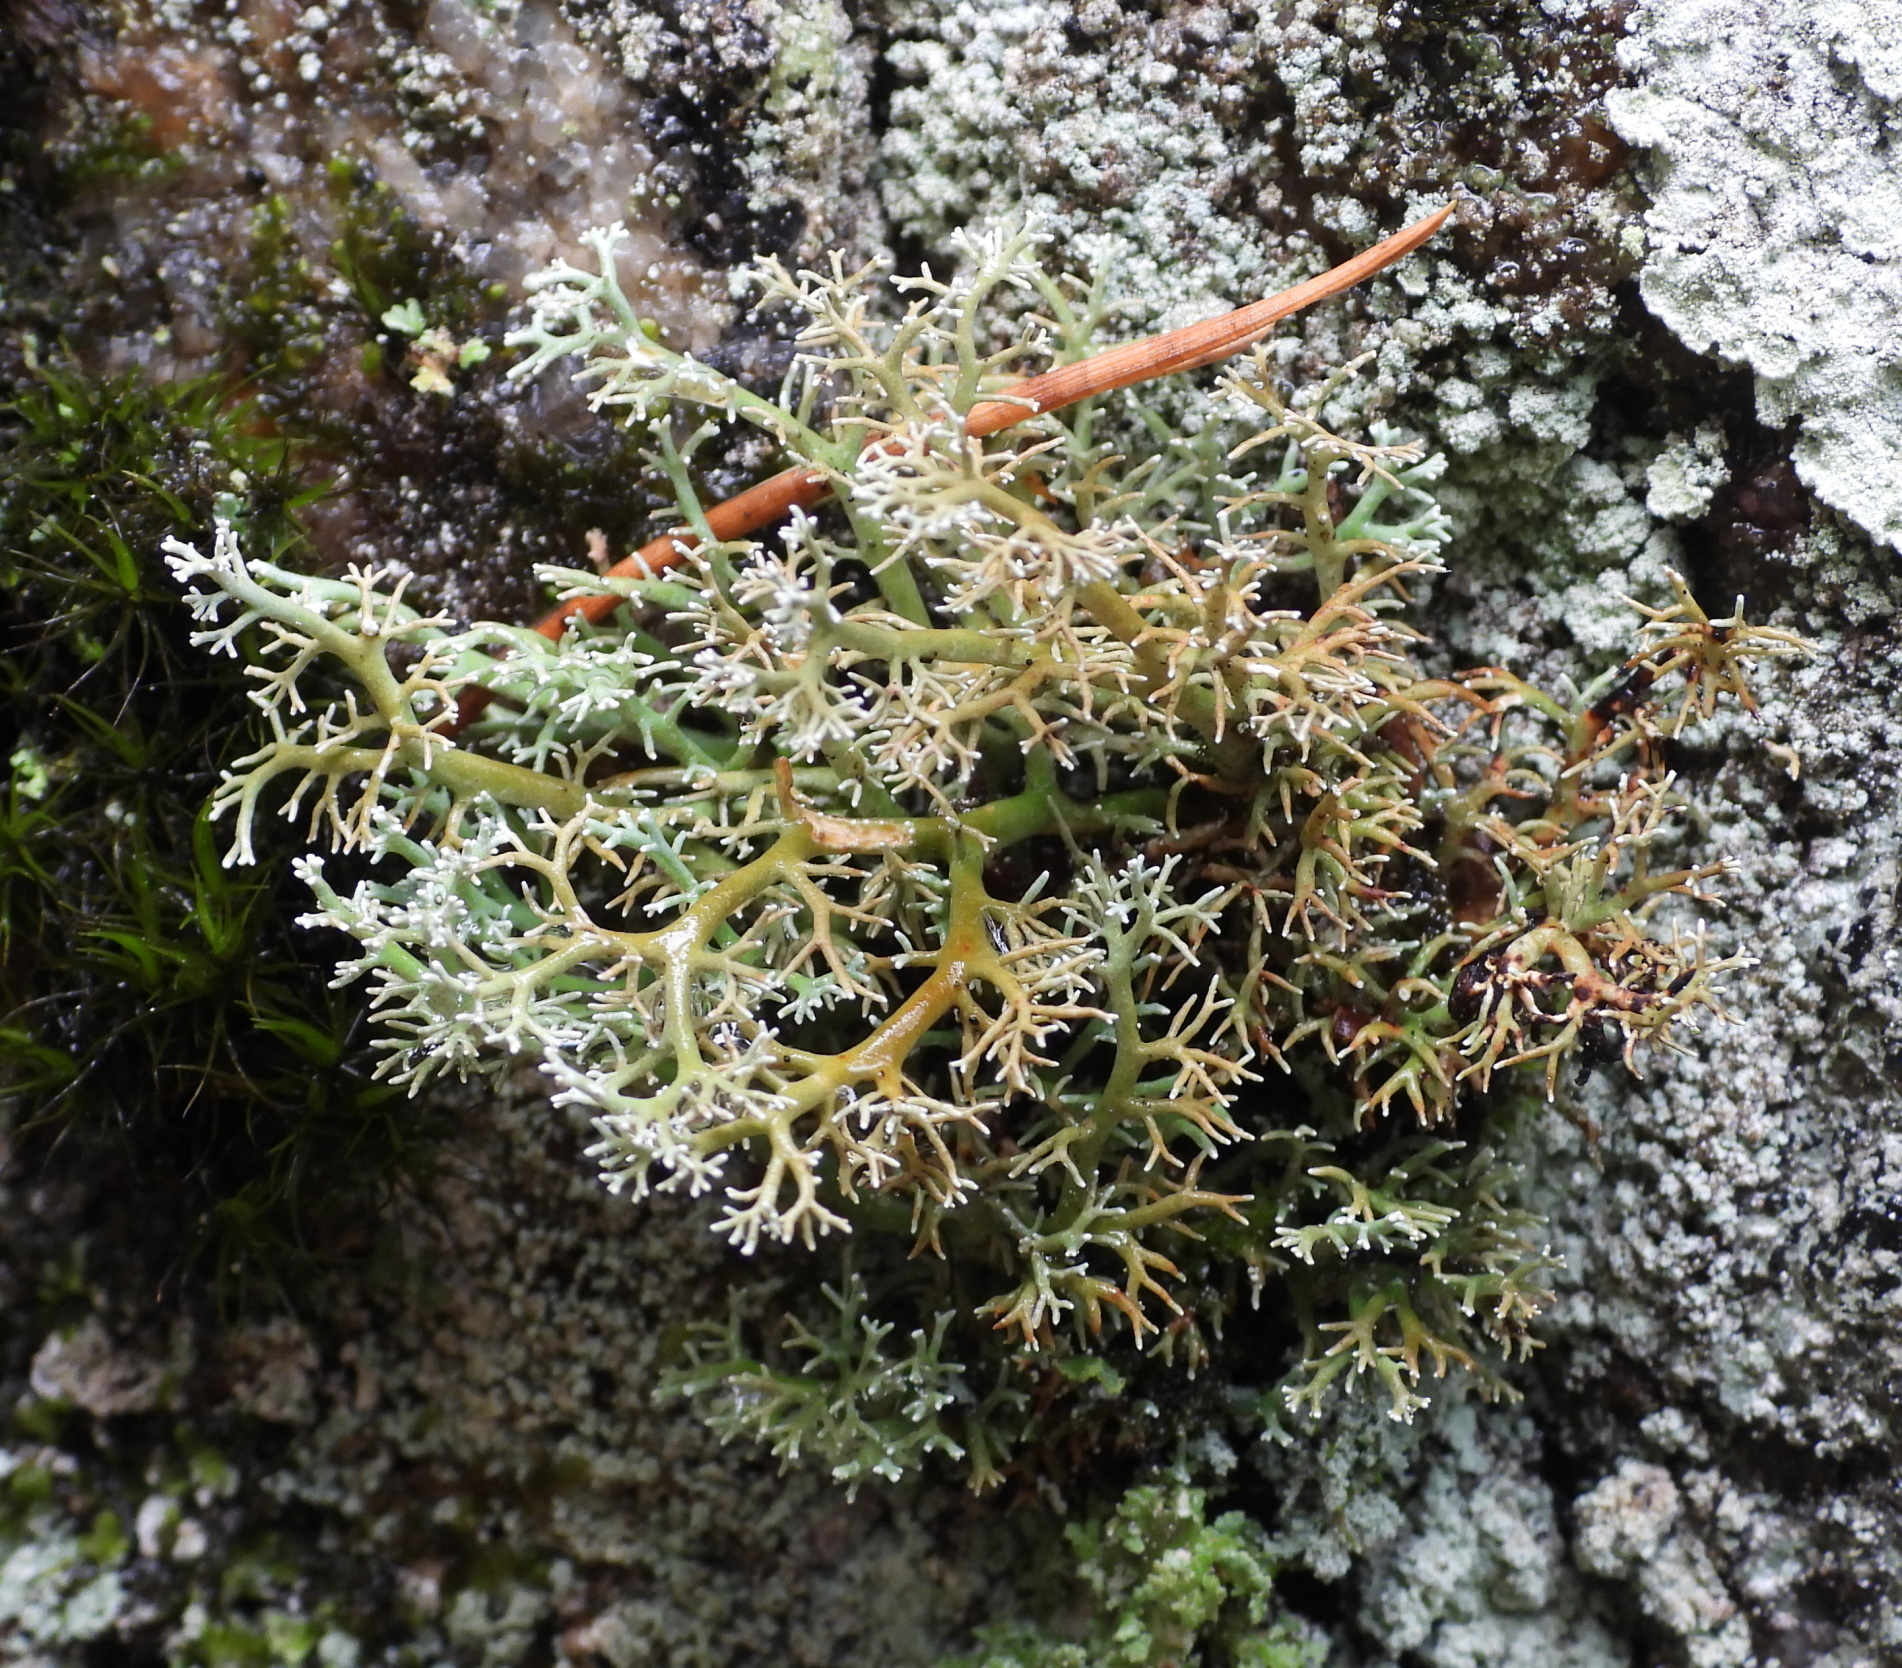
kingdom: Fungi
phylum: Ascomycota
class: Lecanoromycetes
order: Lecanorales
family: Sphaerophoraceae
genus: Sphaerophorus
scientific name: Sphaerophorus globosus
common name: Globe ball lichen
